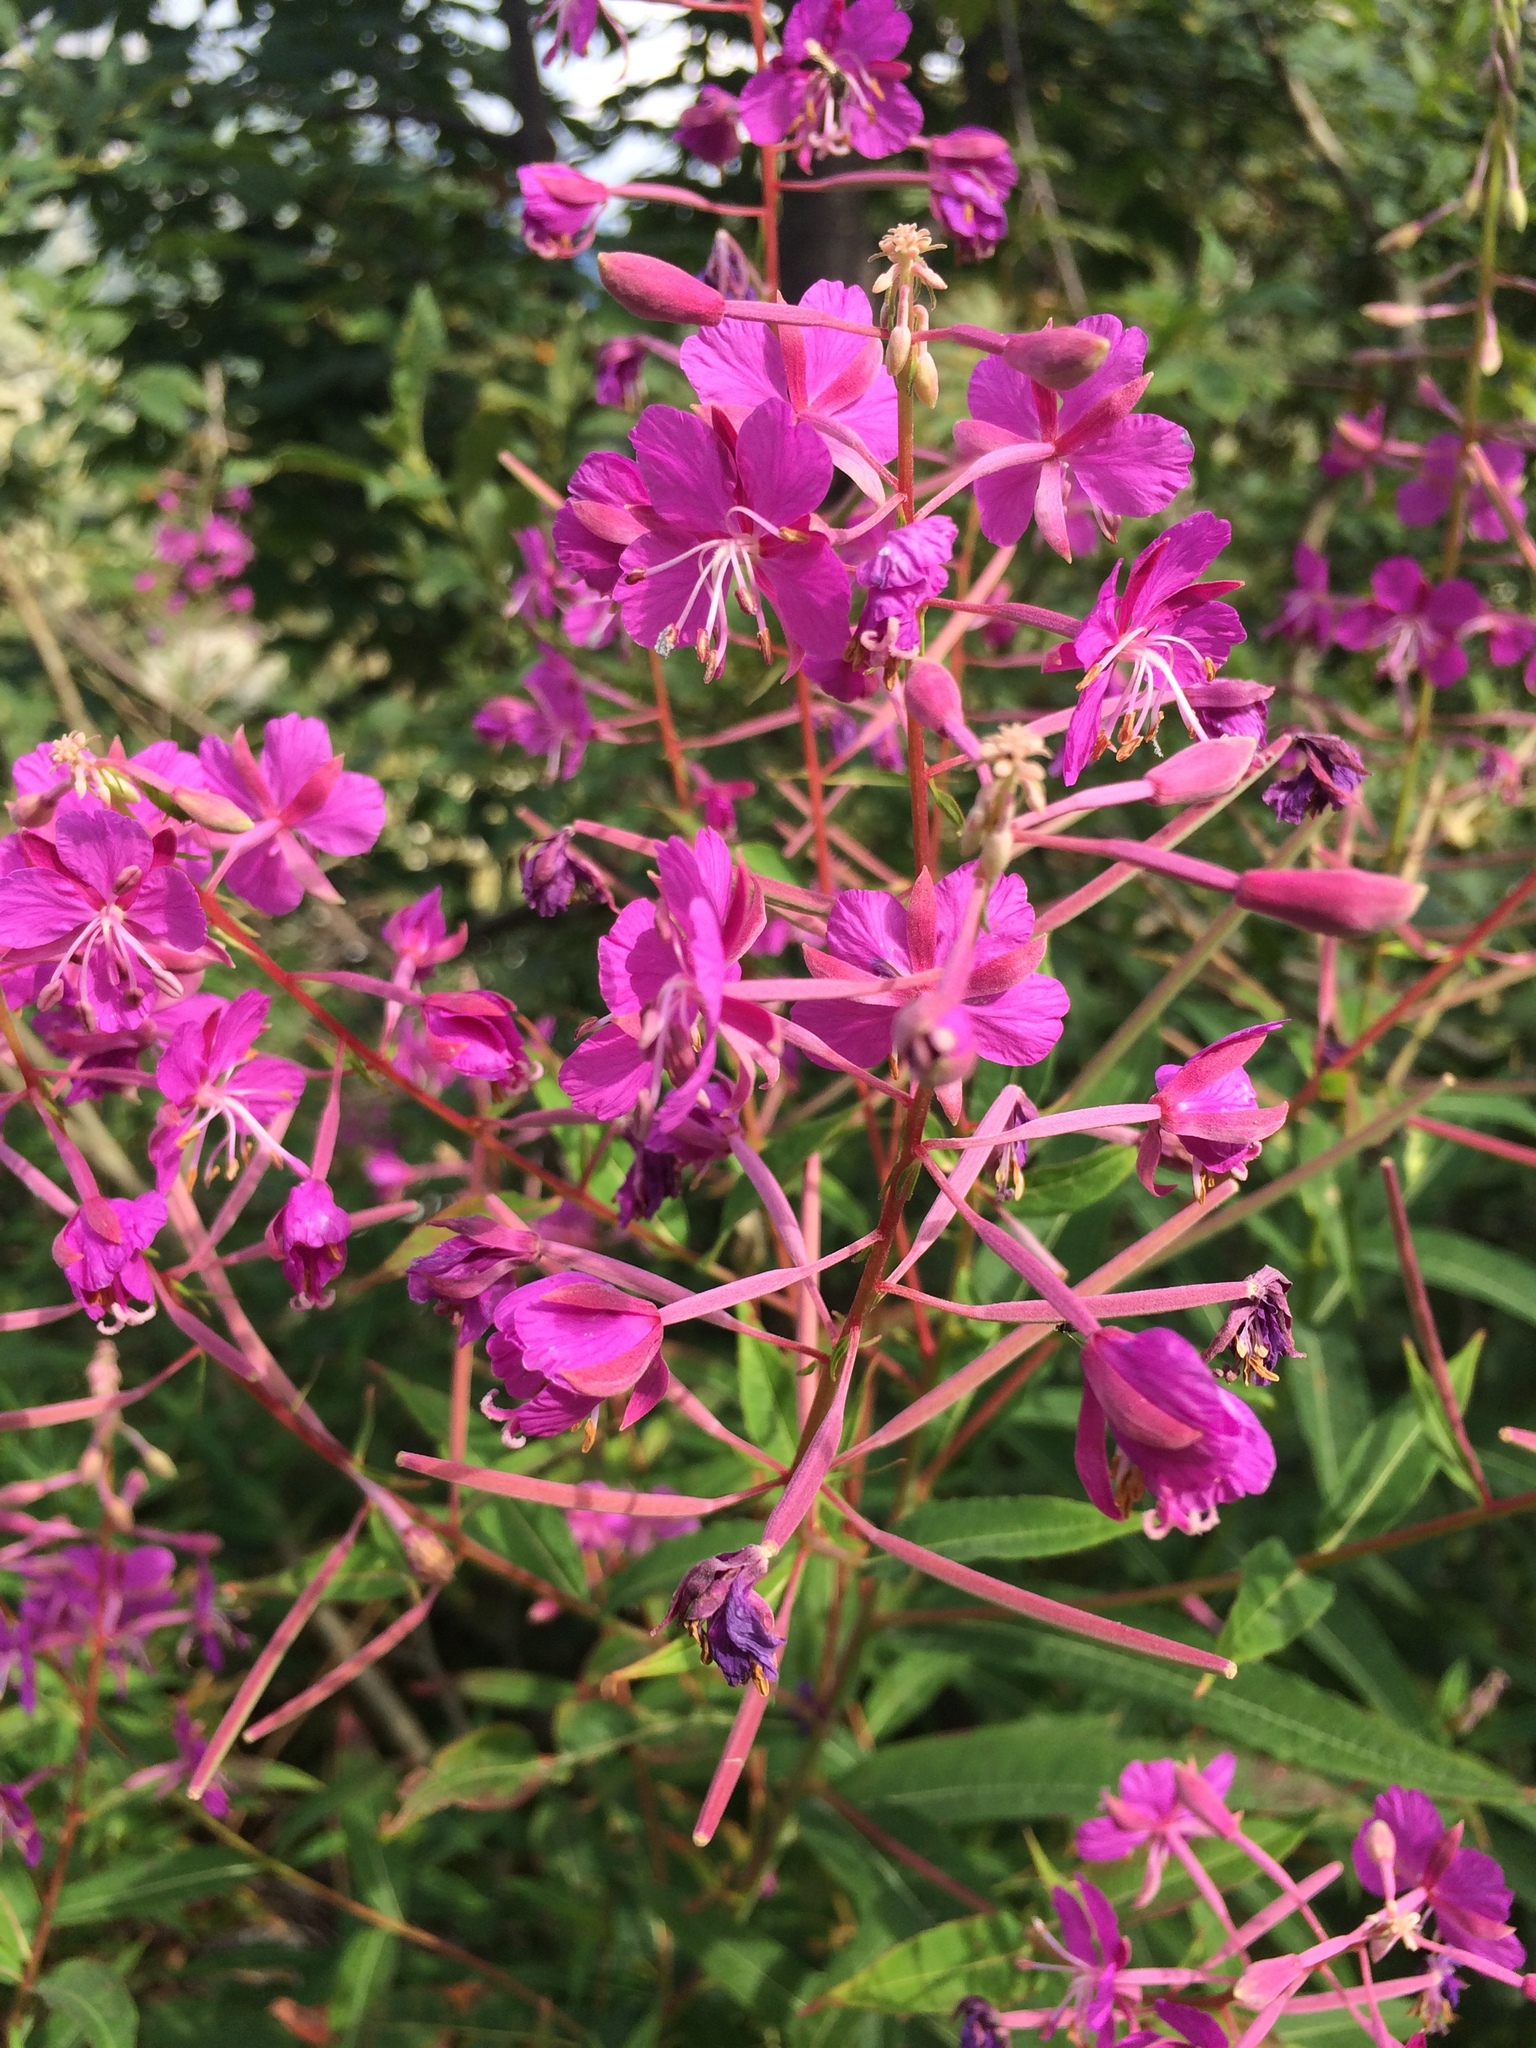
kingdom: Plantae
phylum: Tracheophyta
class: Magnoliopsida
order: Myrtales
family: Onagraceae
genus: Chamaenerion
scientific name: Chamaenerion angustifolium
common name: Fireweed
